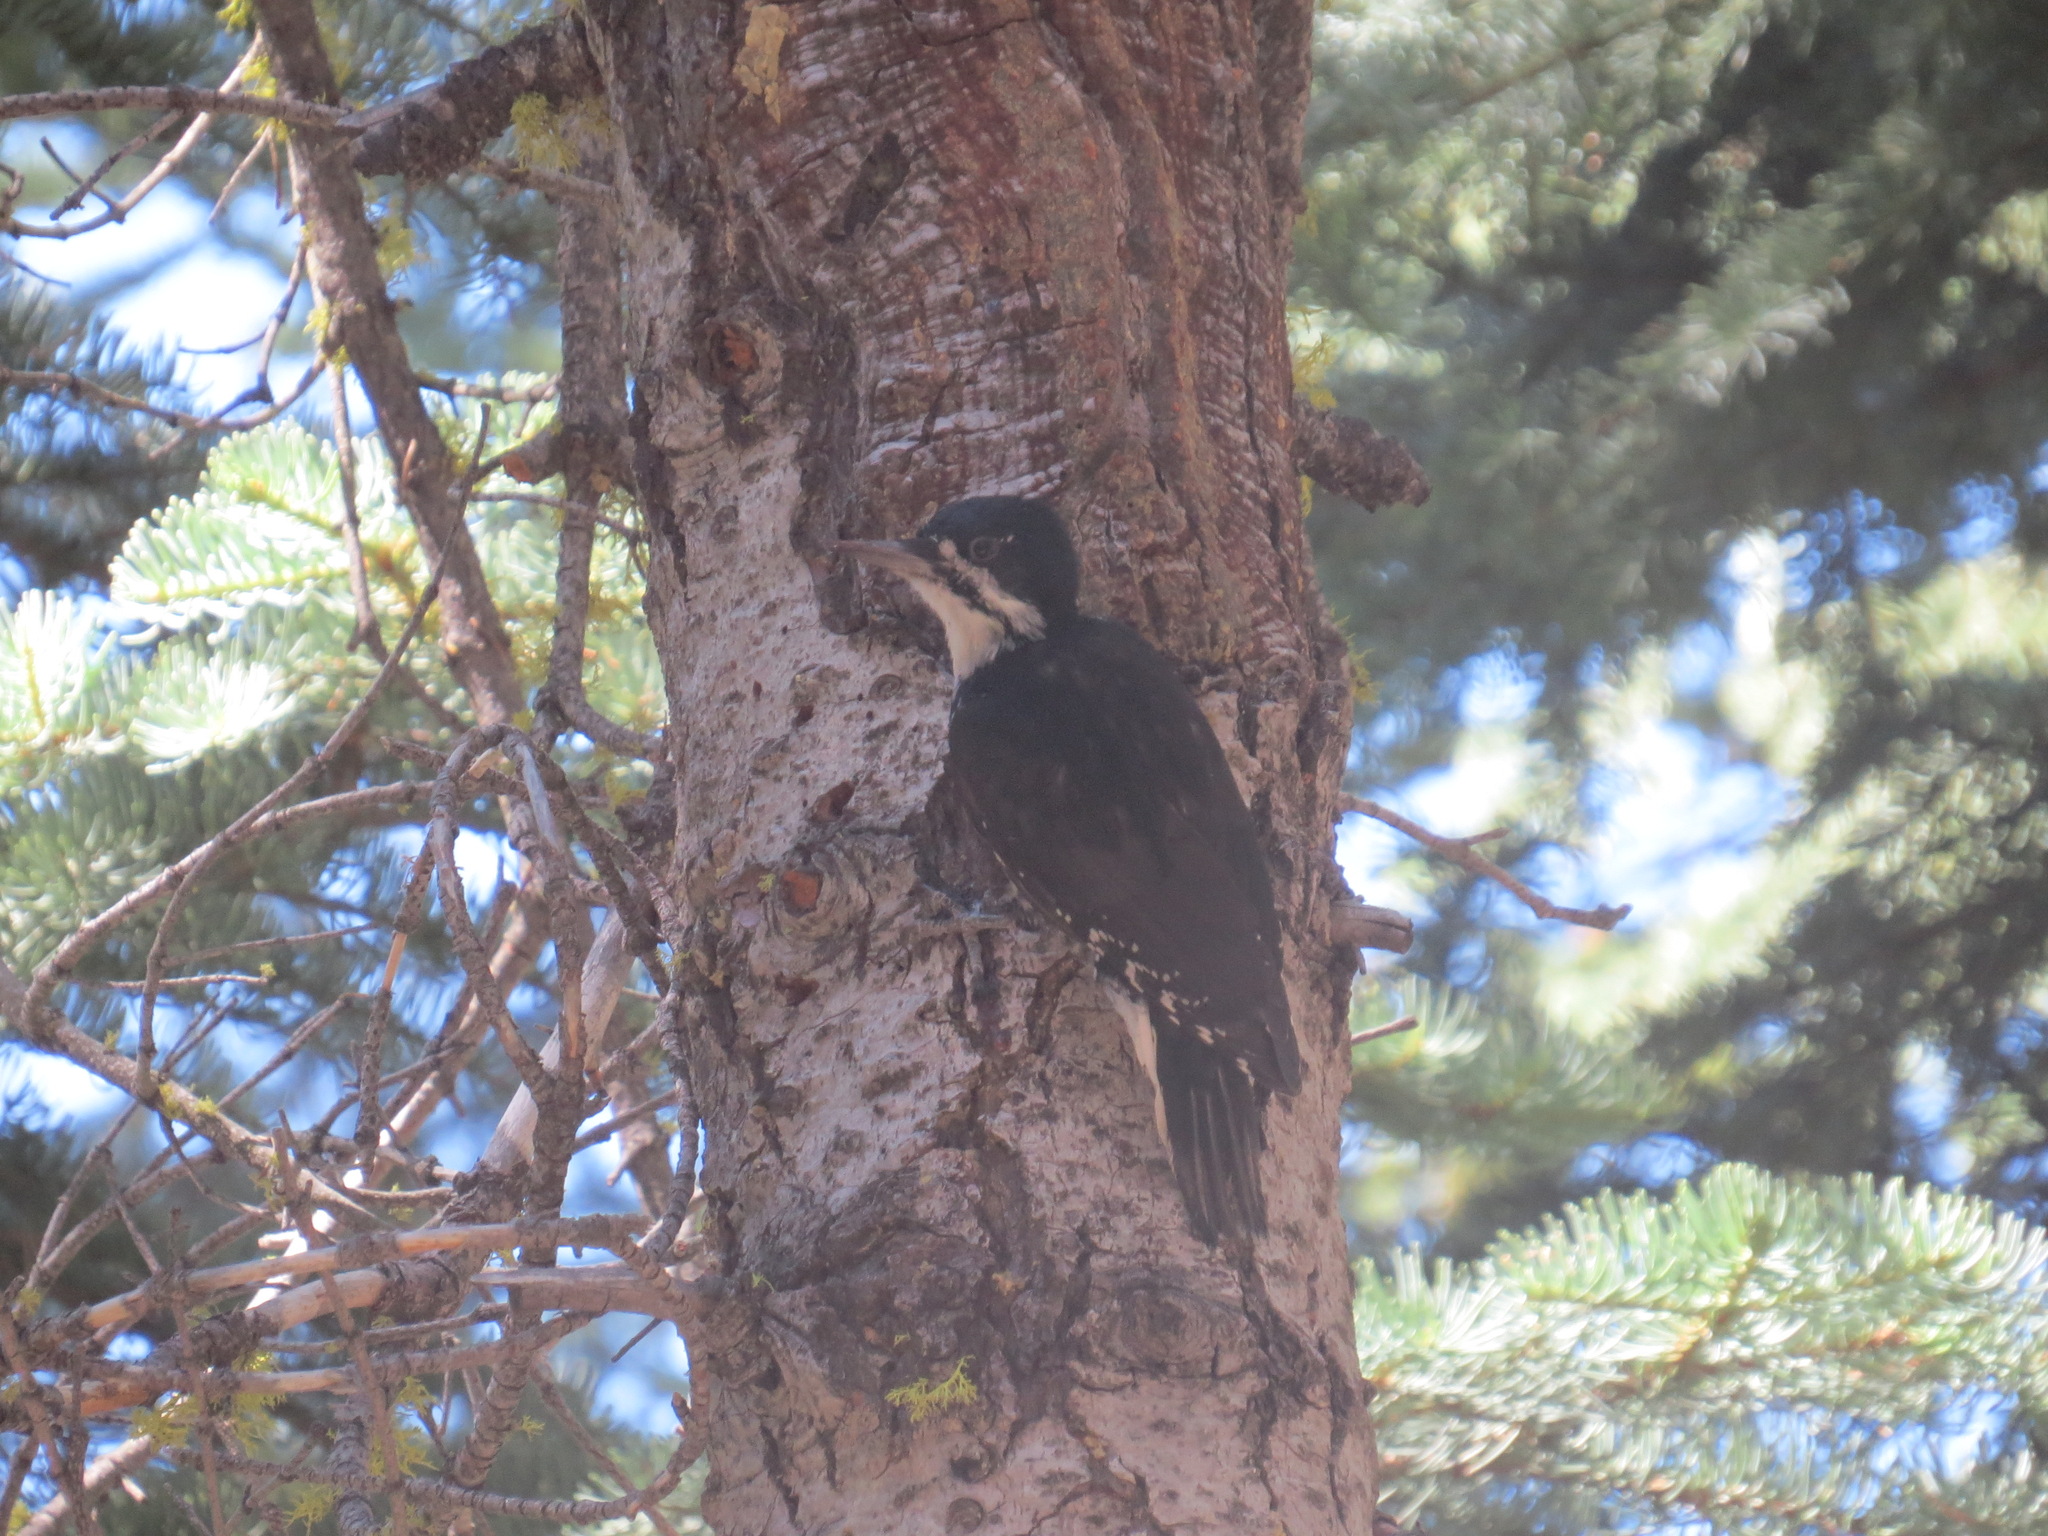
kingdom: Animalia
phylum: Chordata
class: Aves
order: Piciformes
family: Picidae
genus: Picoides
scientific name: Picoides arcticus
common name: Black-backed woodpecker
